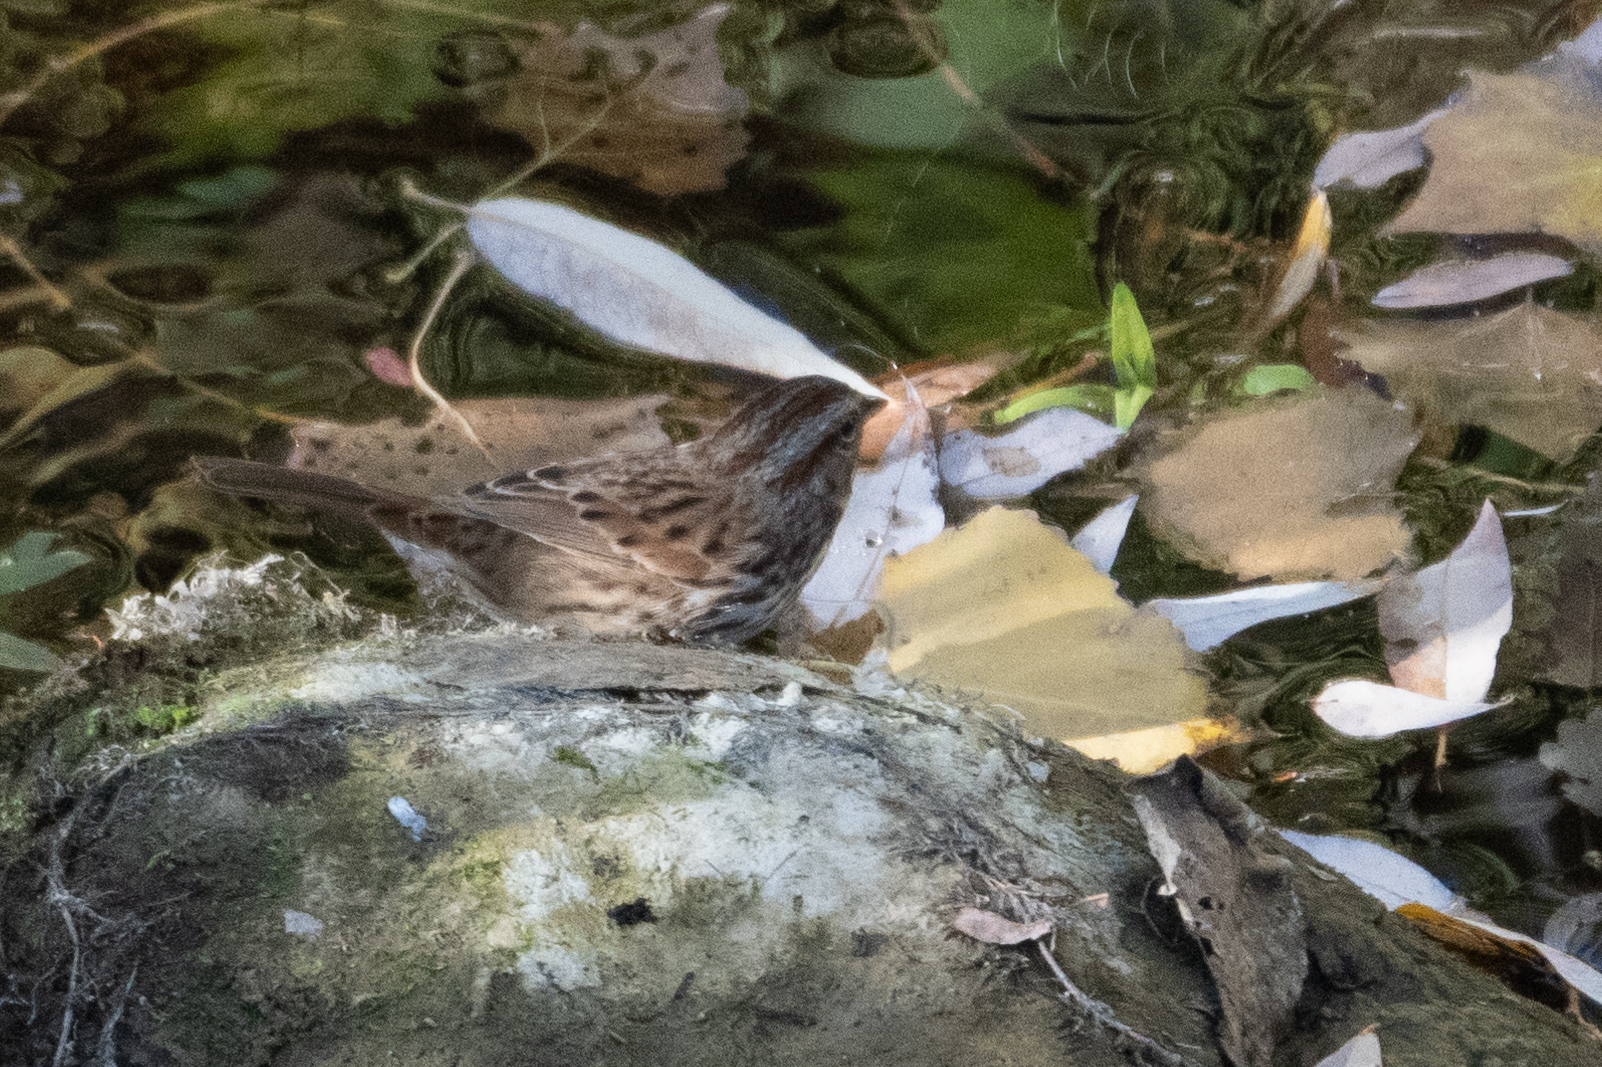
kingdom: Animalia
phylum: Chordata
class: Aves
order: Passeriformes
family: Passerellidae
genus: Melospiza
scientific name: Melospiza melodia
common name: Song sparrow
